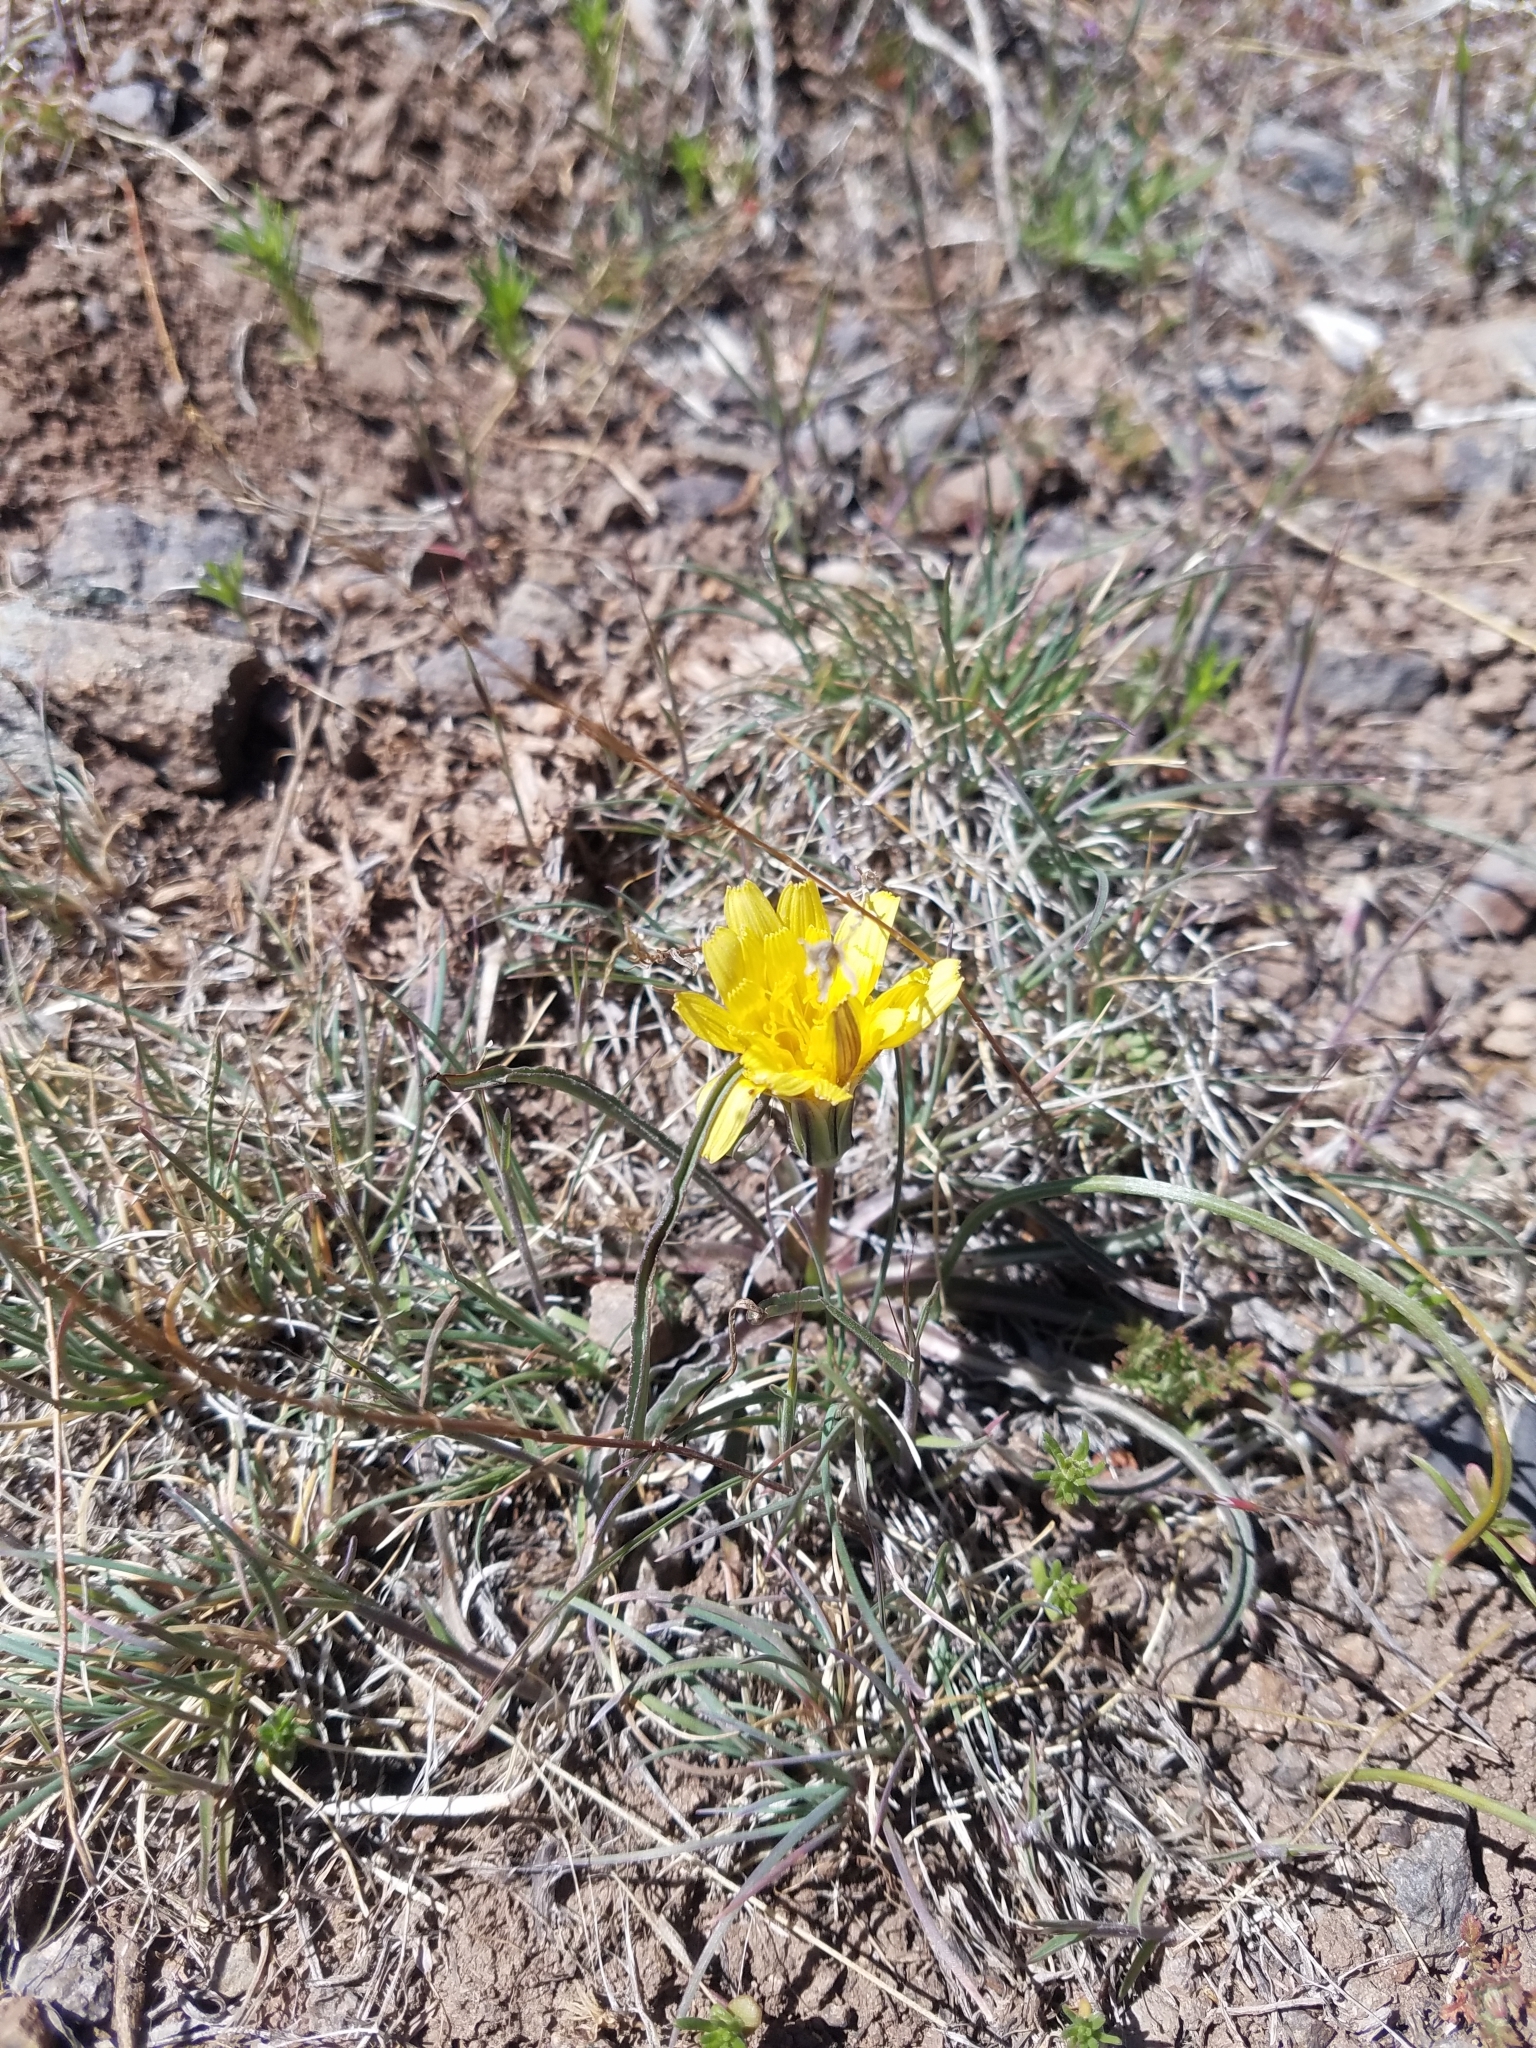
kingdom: Plantae
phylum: Tracheophyta
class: Magnoliopsida
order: Asterales
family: Asteraceae
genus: Agoseris
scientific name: Agoseris glauca
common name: Prairie agoseris
